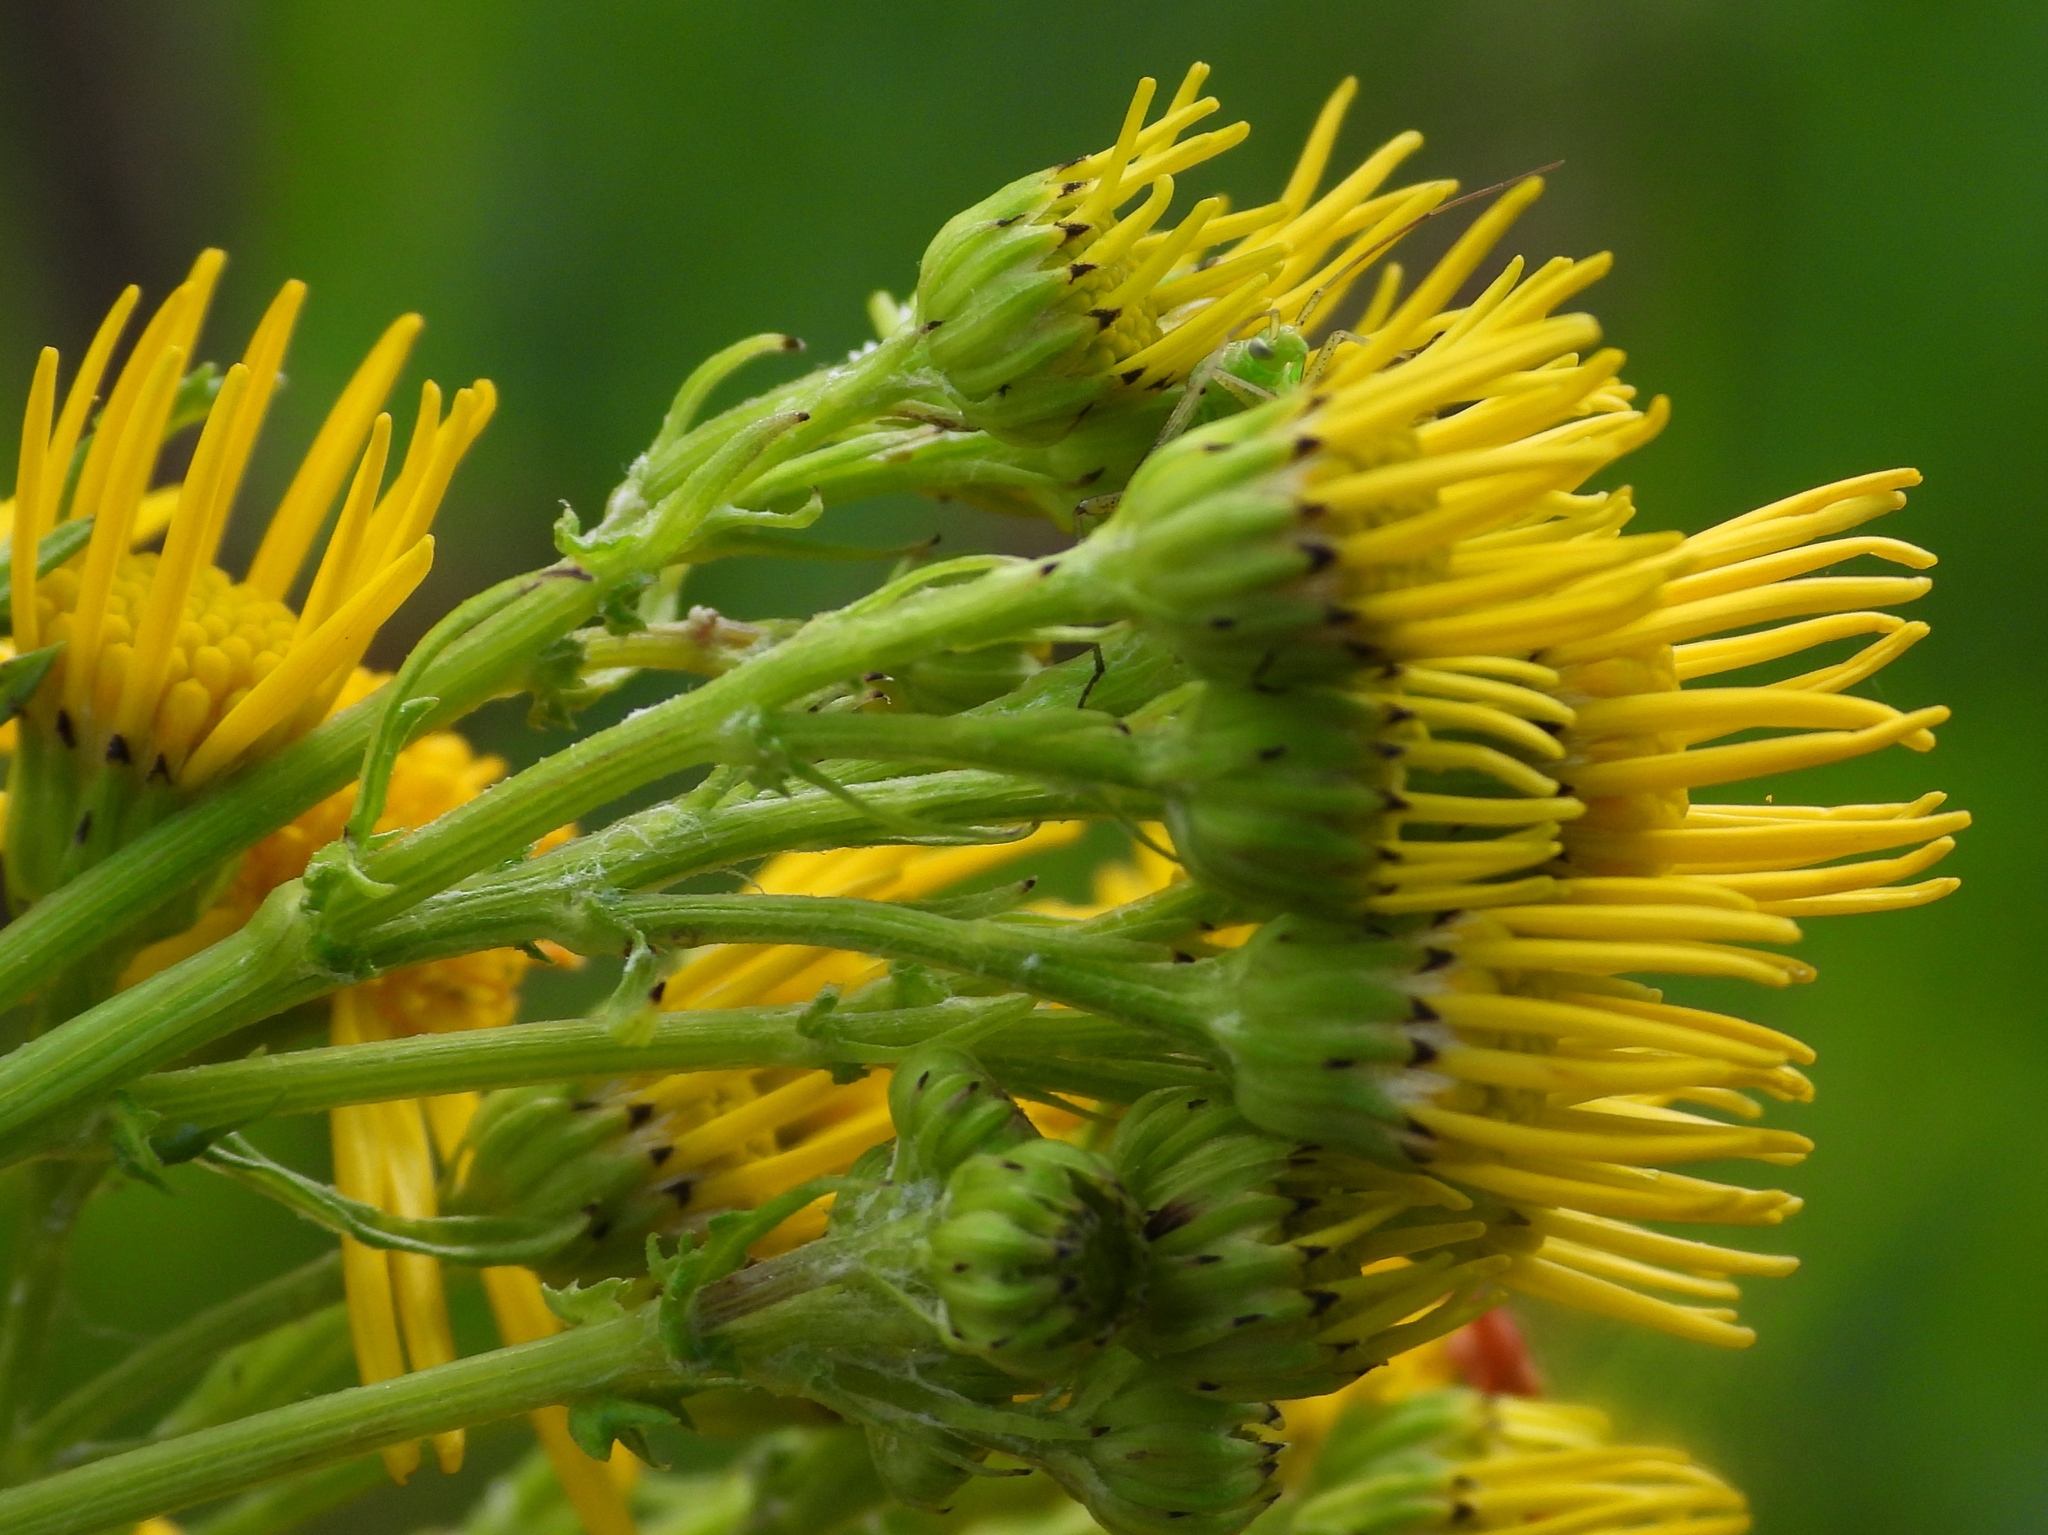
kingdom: Plantae
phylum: Tracheophyta
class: Magnoliopsida
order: Asterales
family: Asteraceae
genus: Jacobaea
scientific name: Jacobaea vulgaris
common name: Stinking willie
